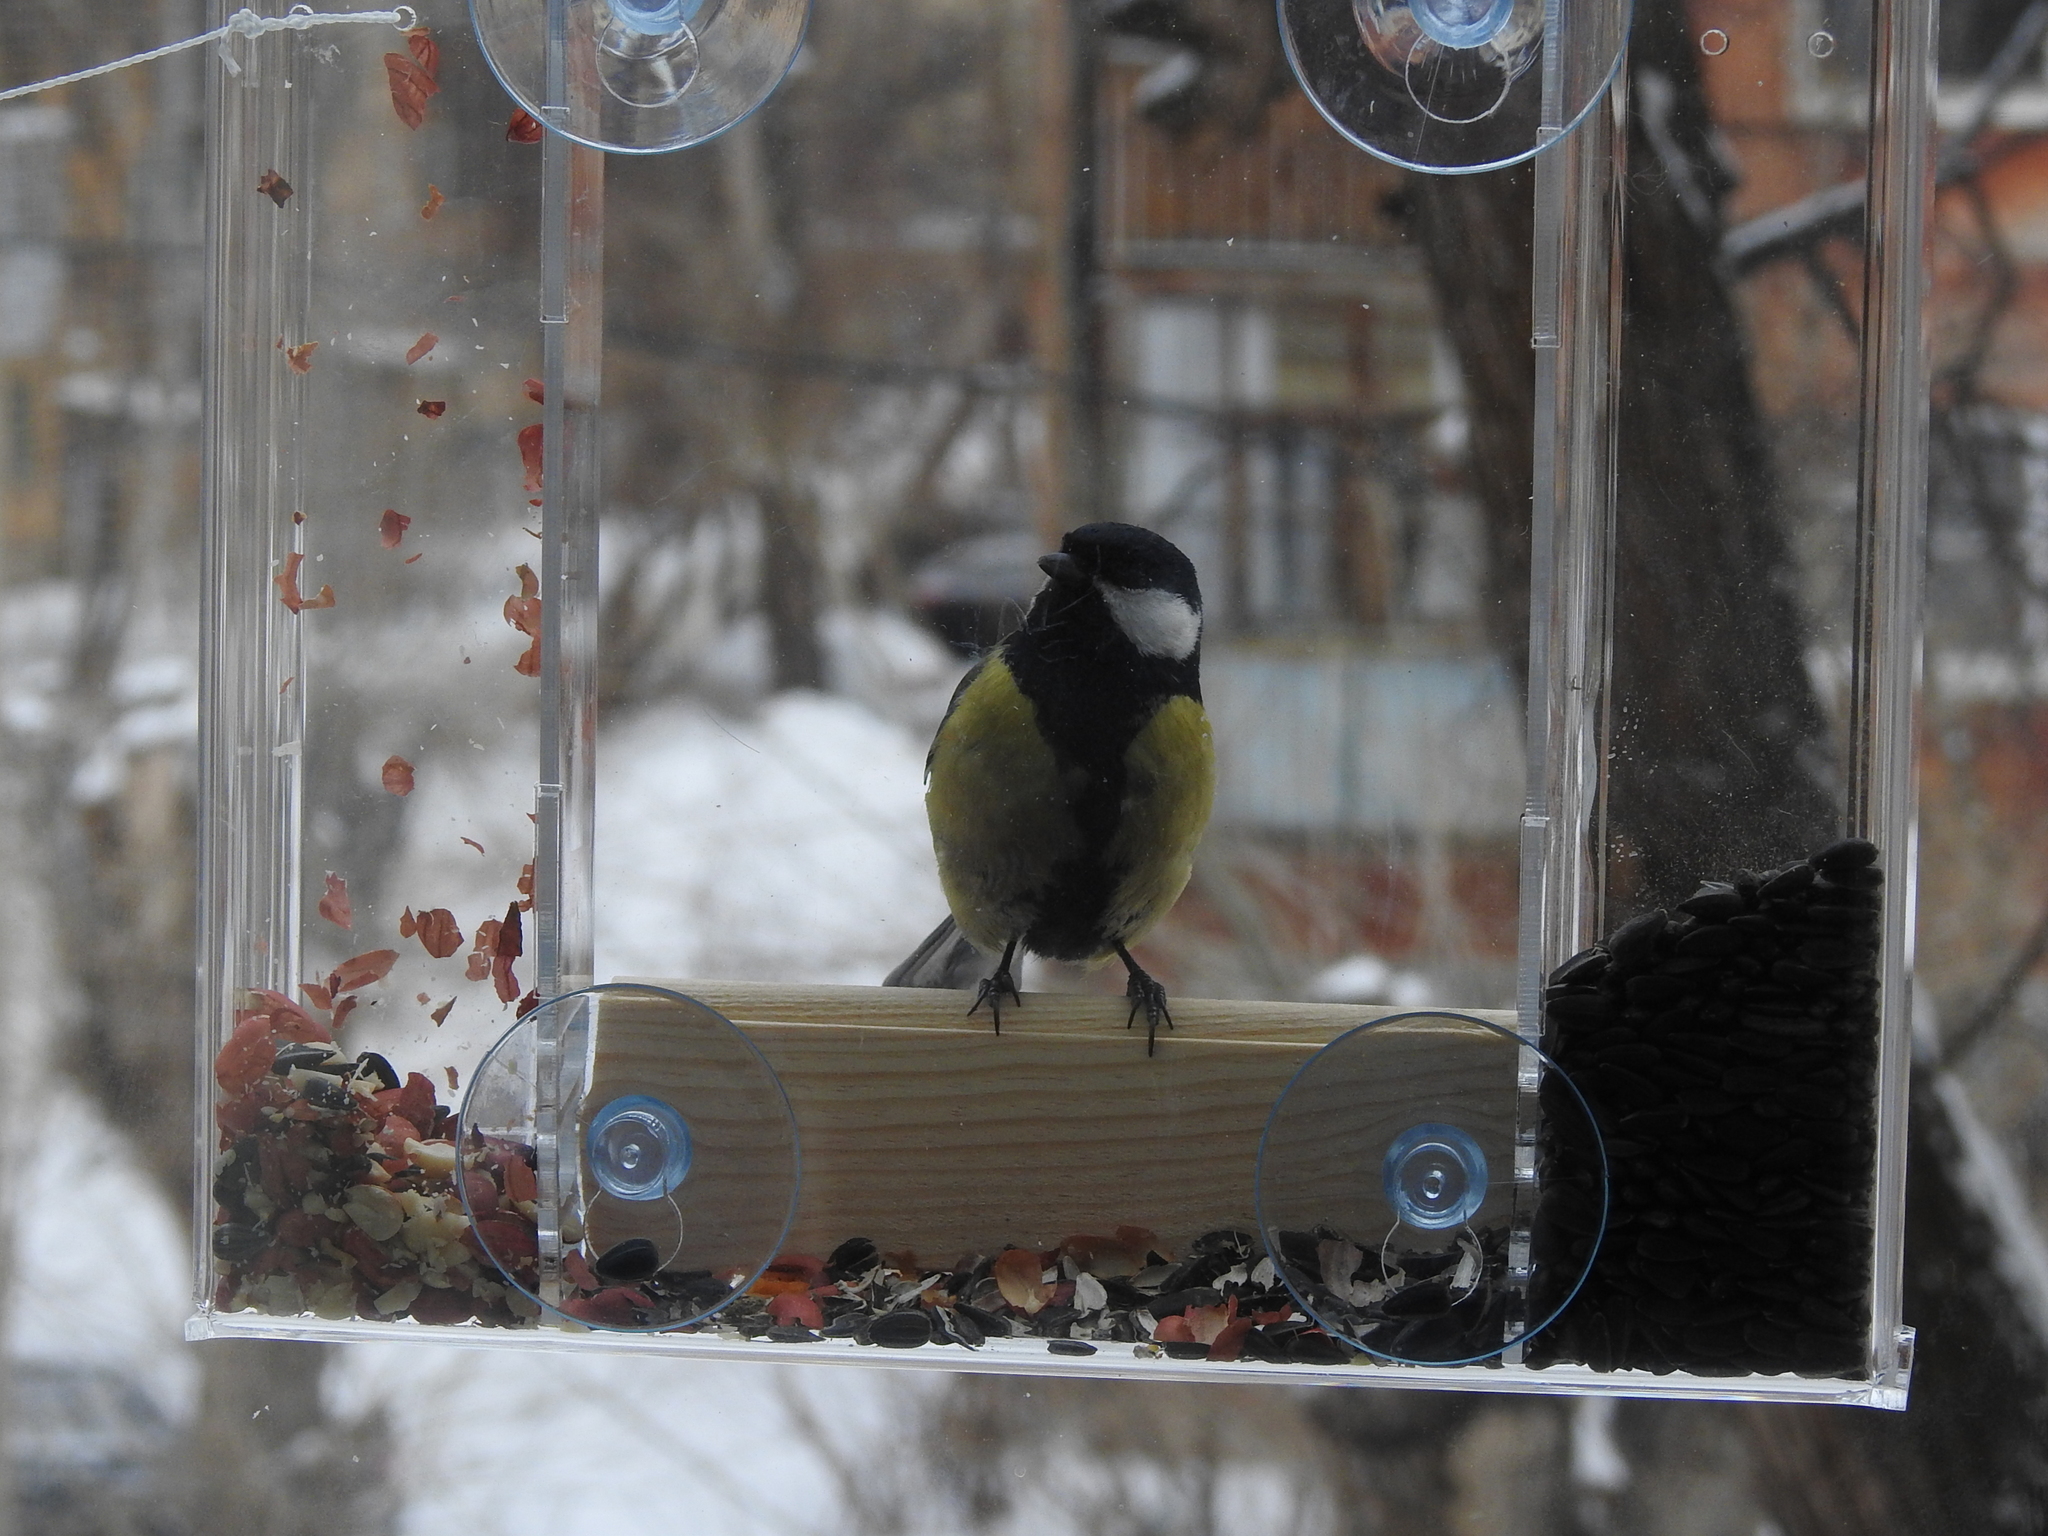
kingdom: Animalia
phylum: Chordata
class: Aves
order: Passeriformes
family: Paridae
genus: Parus
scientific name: Parus major
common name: Great tit
